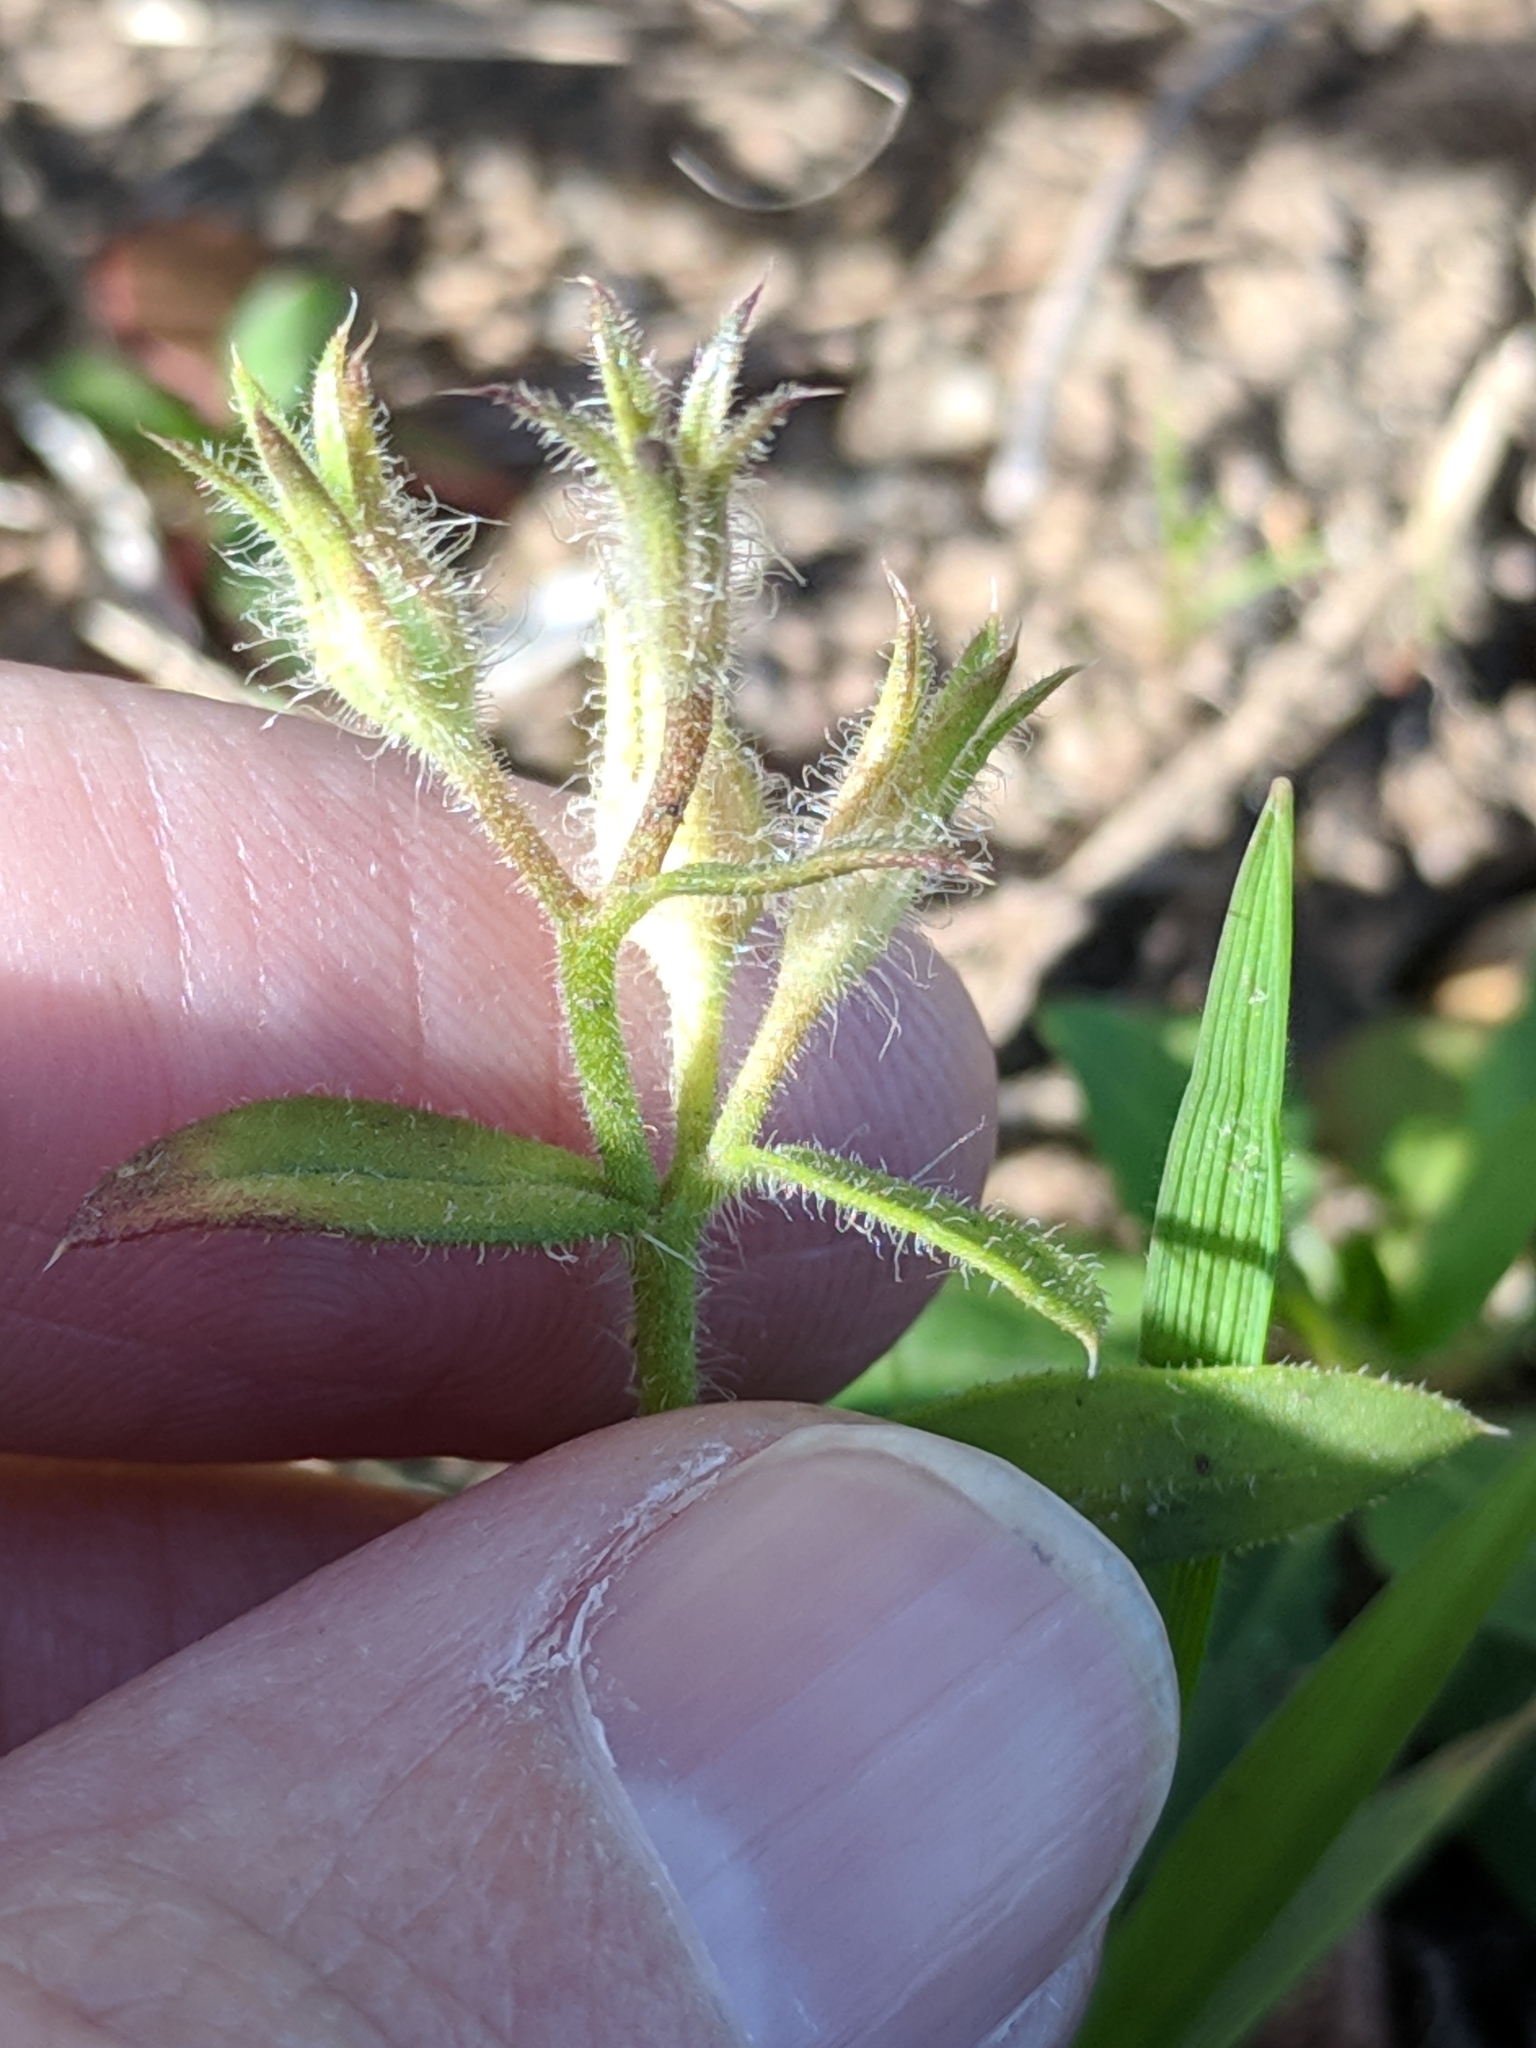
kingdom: Plantae
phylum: Tracheophyta
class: Magnoliopsida
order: Ericales
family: Polemoniaceae
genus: Phlox
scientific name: Phlox drummondii
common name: Drummond's phlox
